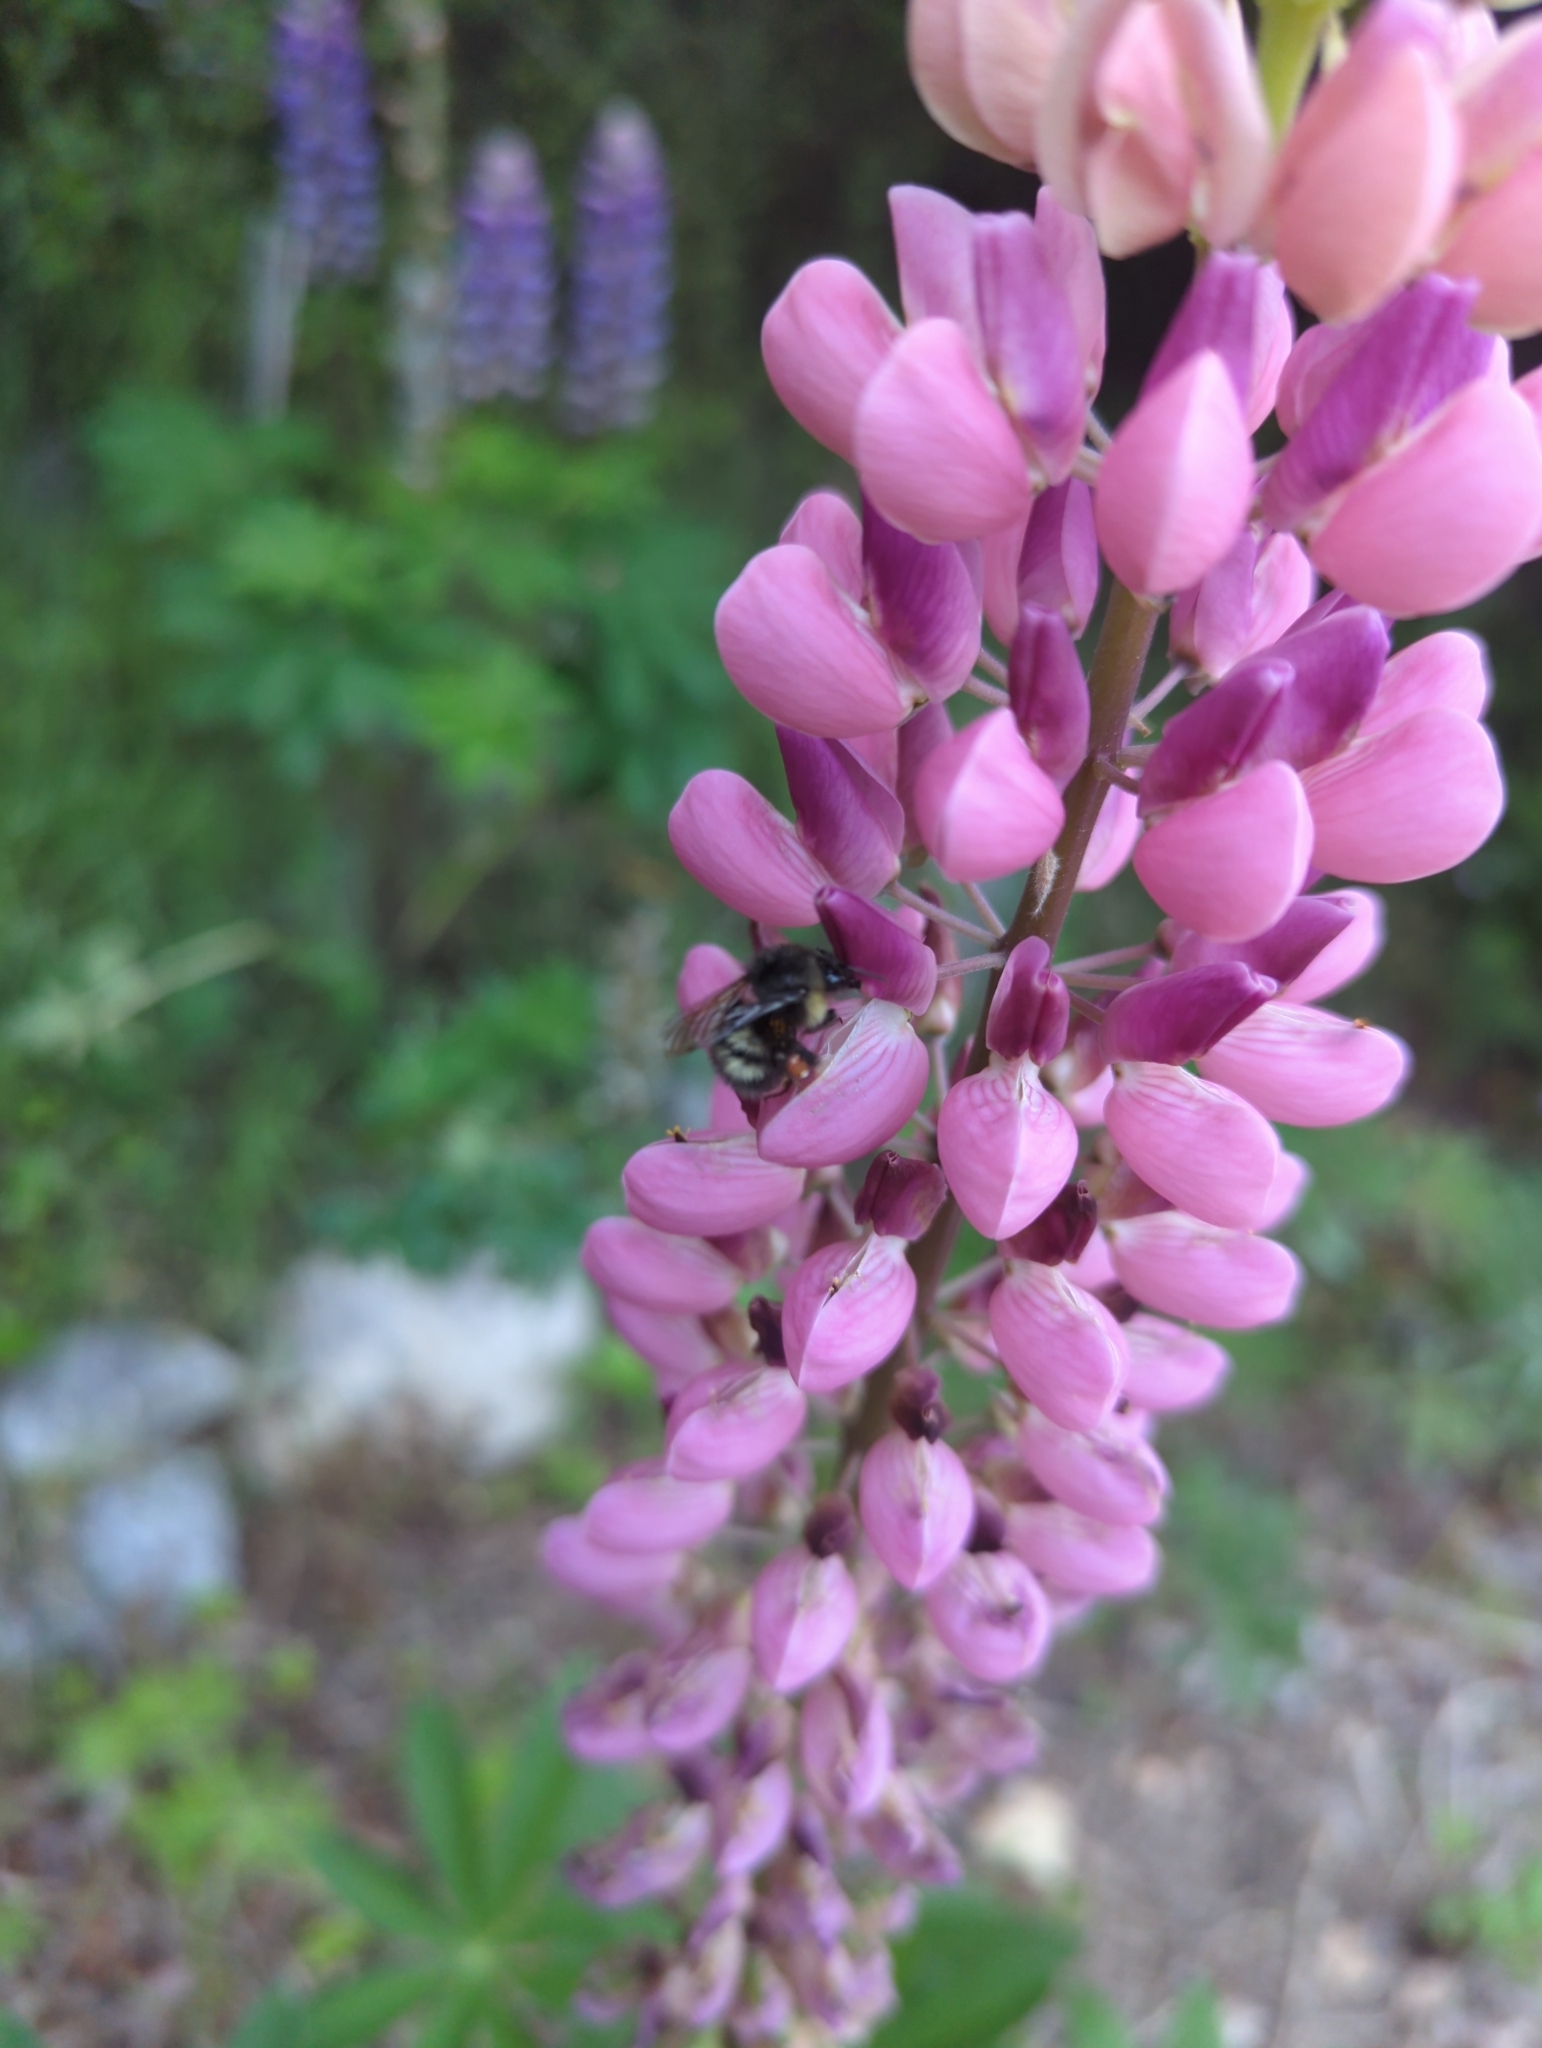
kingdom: Animalia
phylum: Arthropoda
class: Insecta
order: Hymenoptera
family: Apidae
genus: Bombus
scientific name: Bombus sitkensis
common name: Sitka bumble bee
